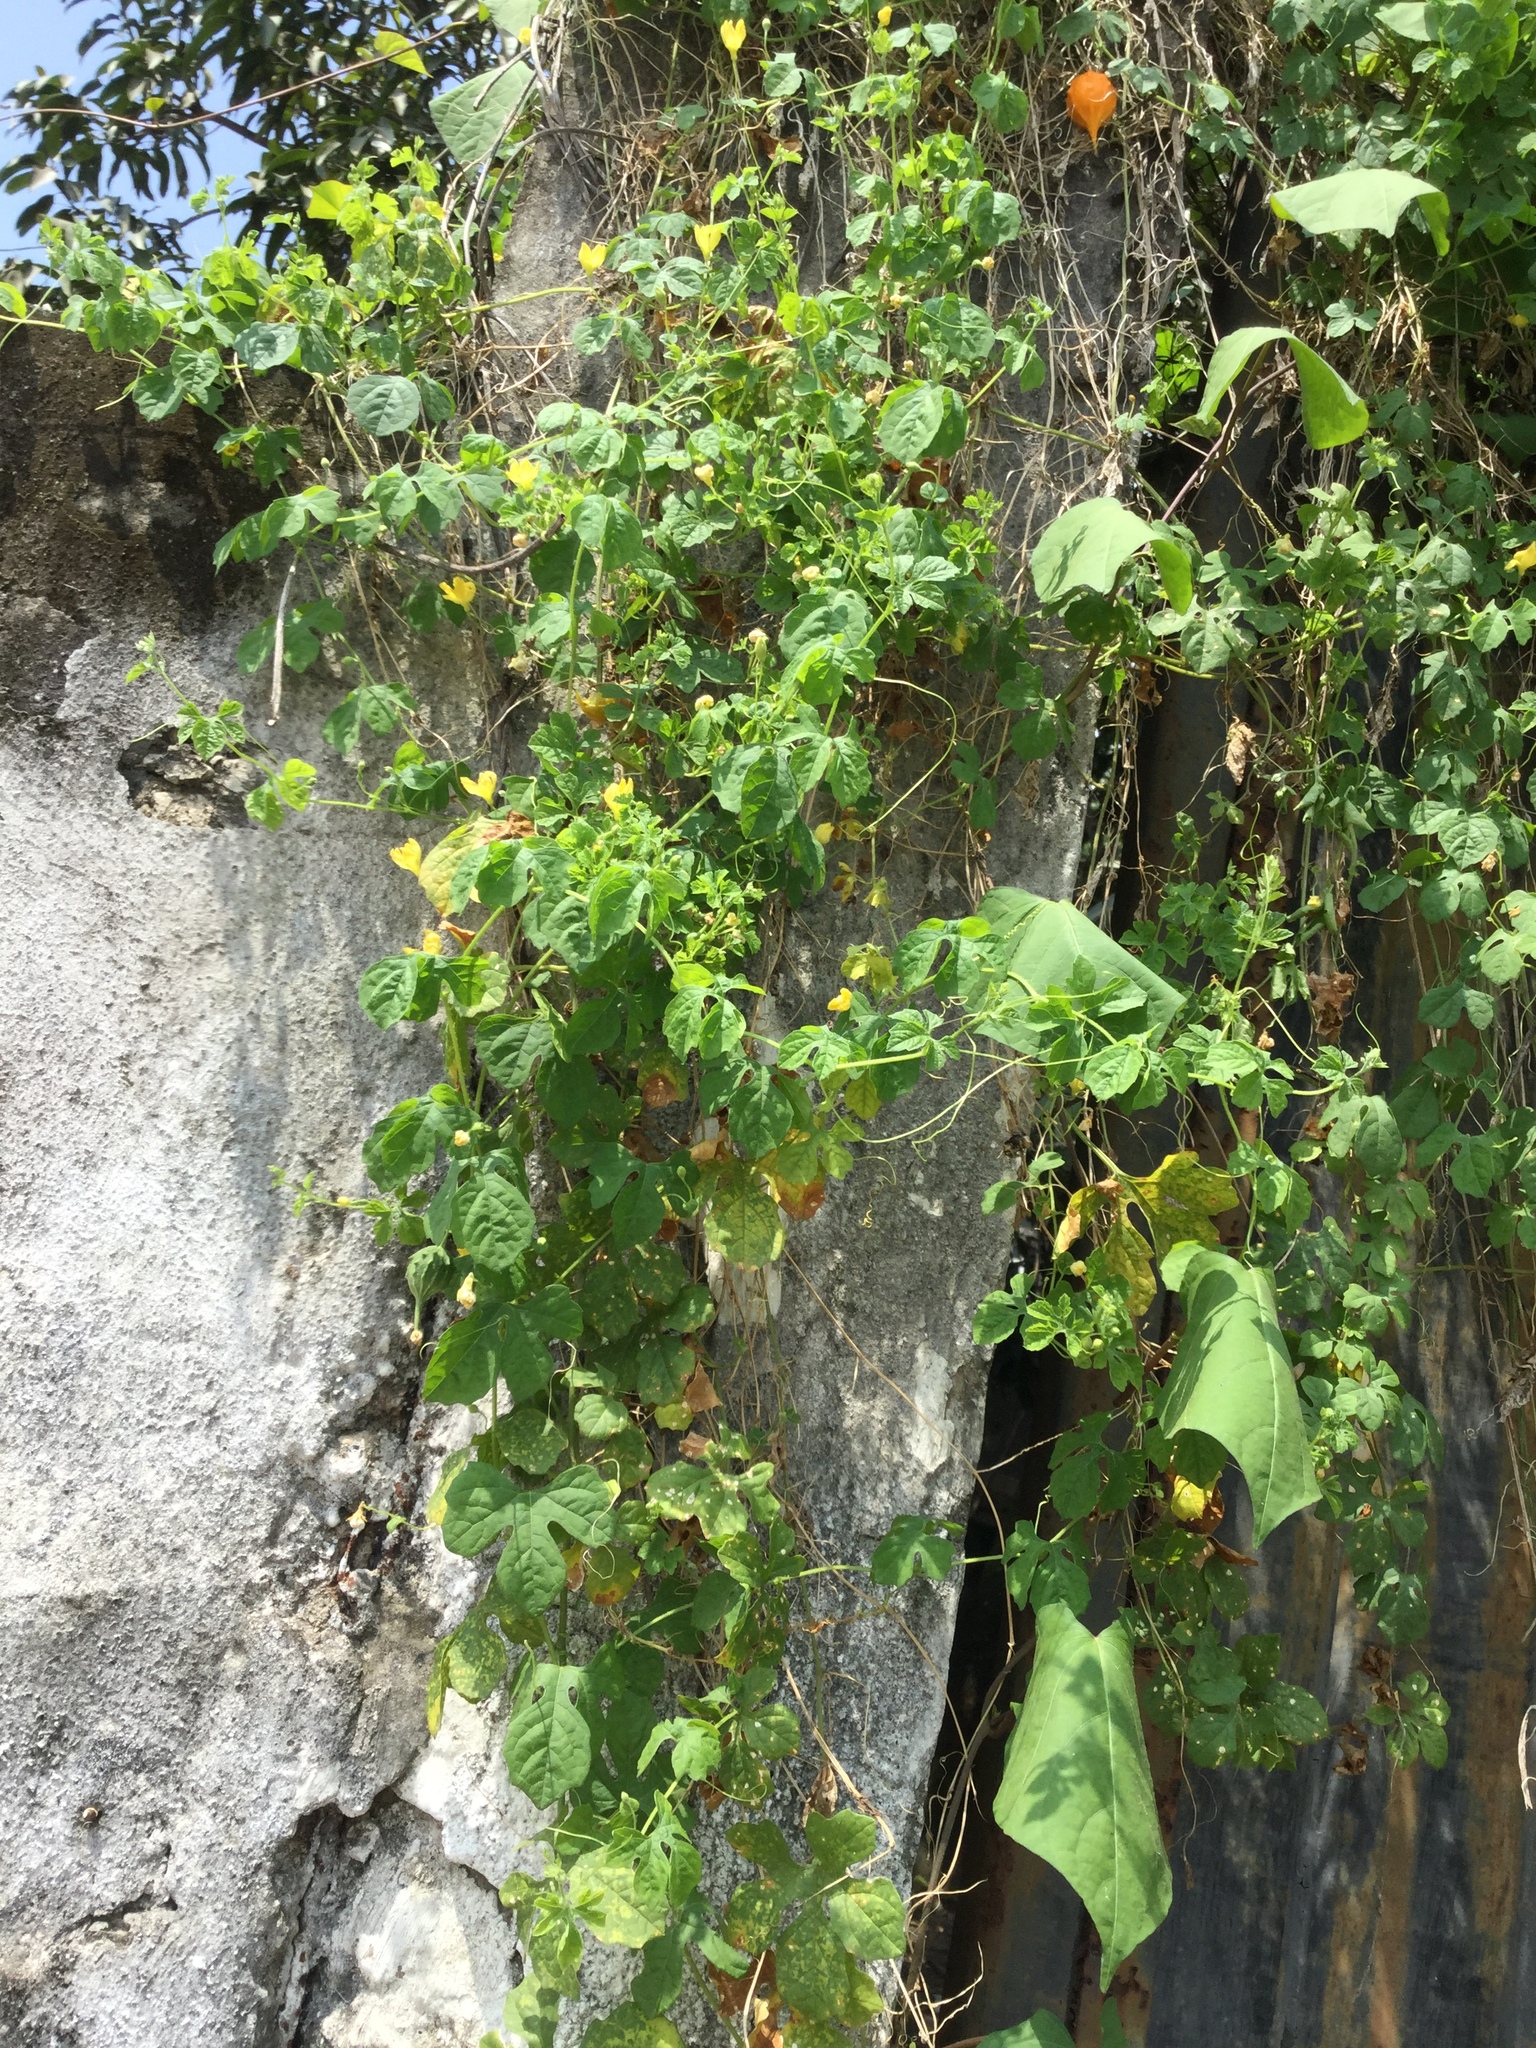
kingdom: Plantae
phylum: Tracheophyta
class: Magnoliopsida
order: Cucurbitales
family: Cucurbitaceae
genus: Momordica
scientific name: Momordica charantia
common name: Balsampear
